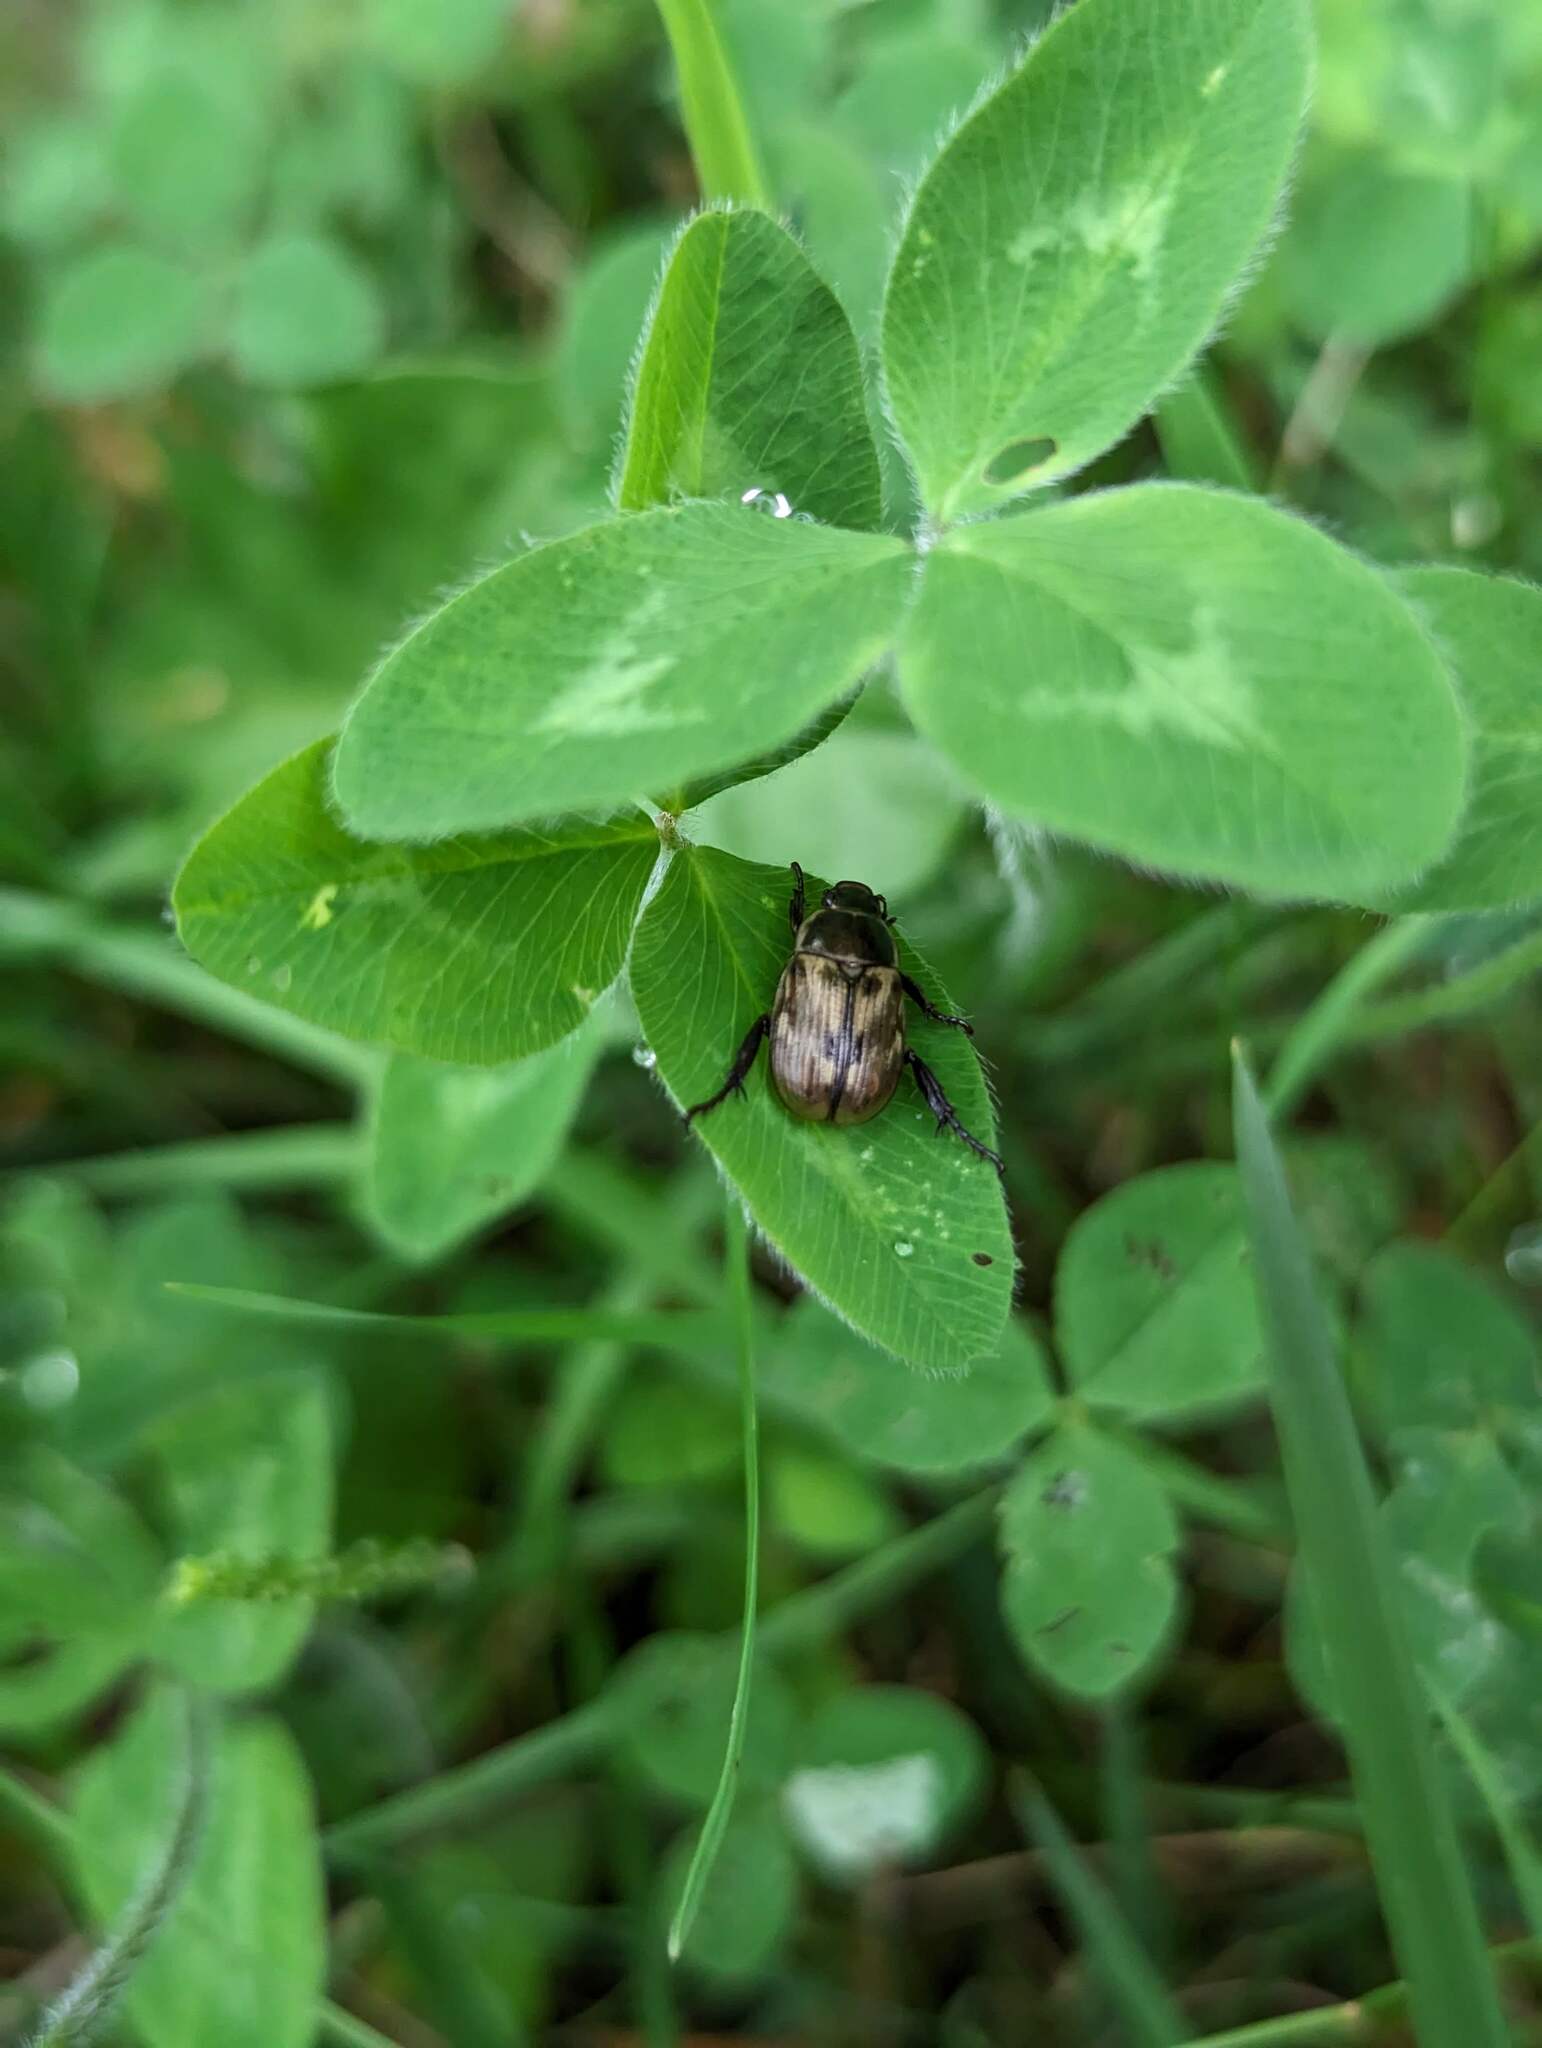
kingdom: Animalia
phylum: Arthropoda
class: Insecta
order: Coleoptera
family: Scarabaeidae
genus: Exomala
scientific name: Exomala orientalis
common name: Oriental beetle
